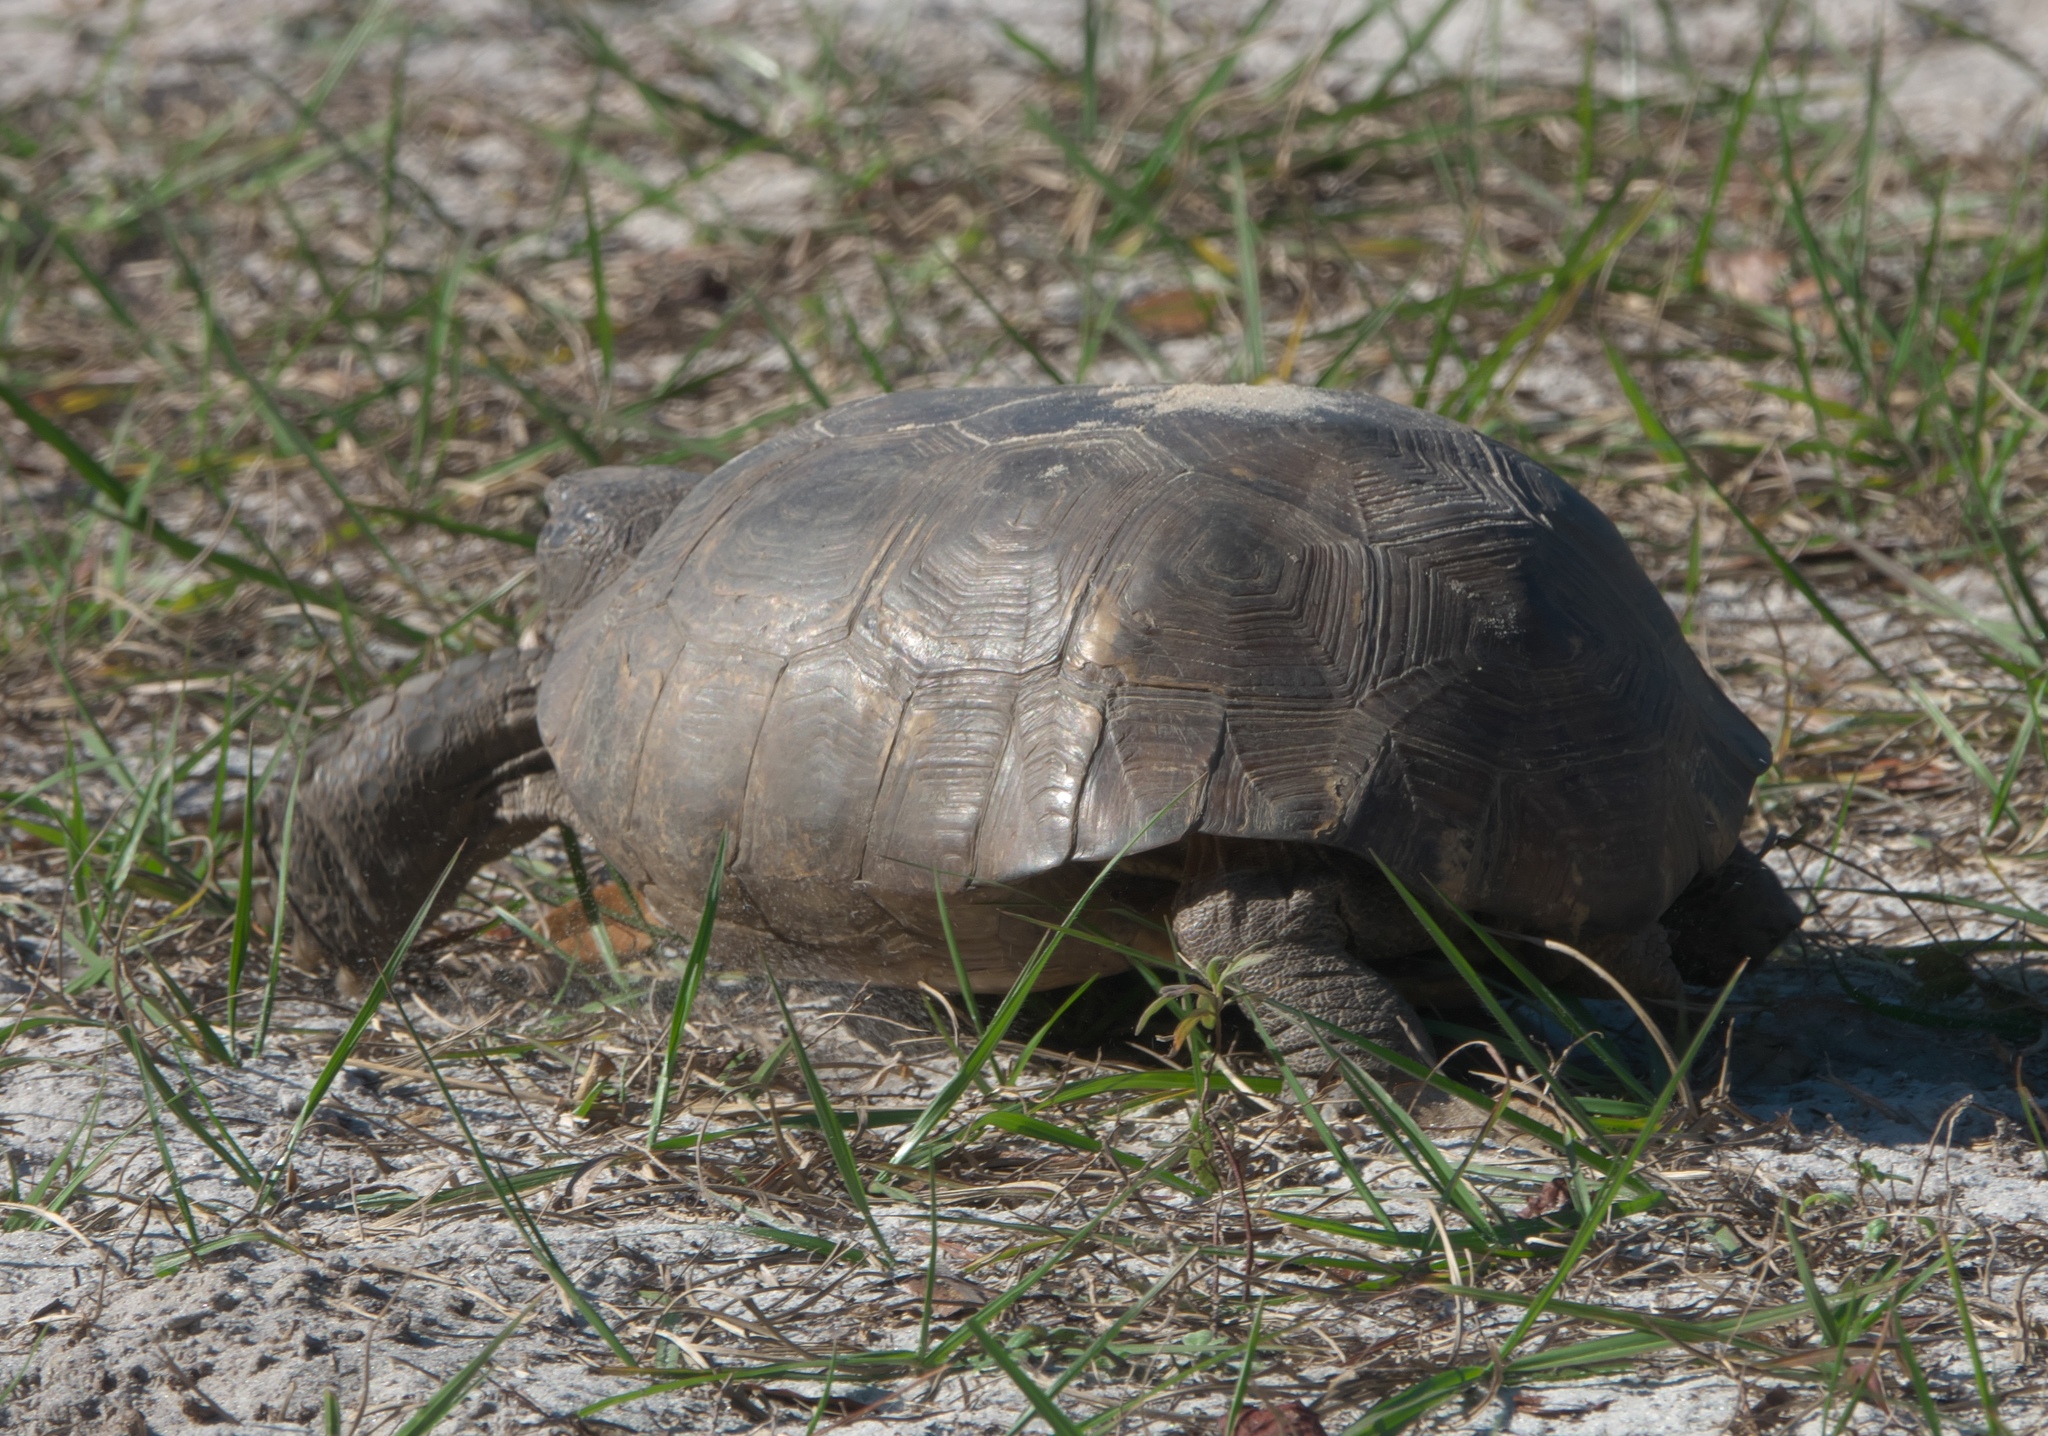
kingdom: Animalia
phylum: Chordata
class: Testudines
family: Testudinidae
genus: Gopherus
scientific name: Gopherus polyphemus
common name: Florida gopher tortoise
